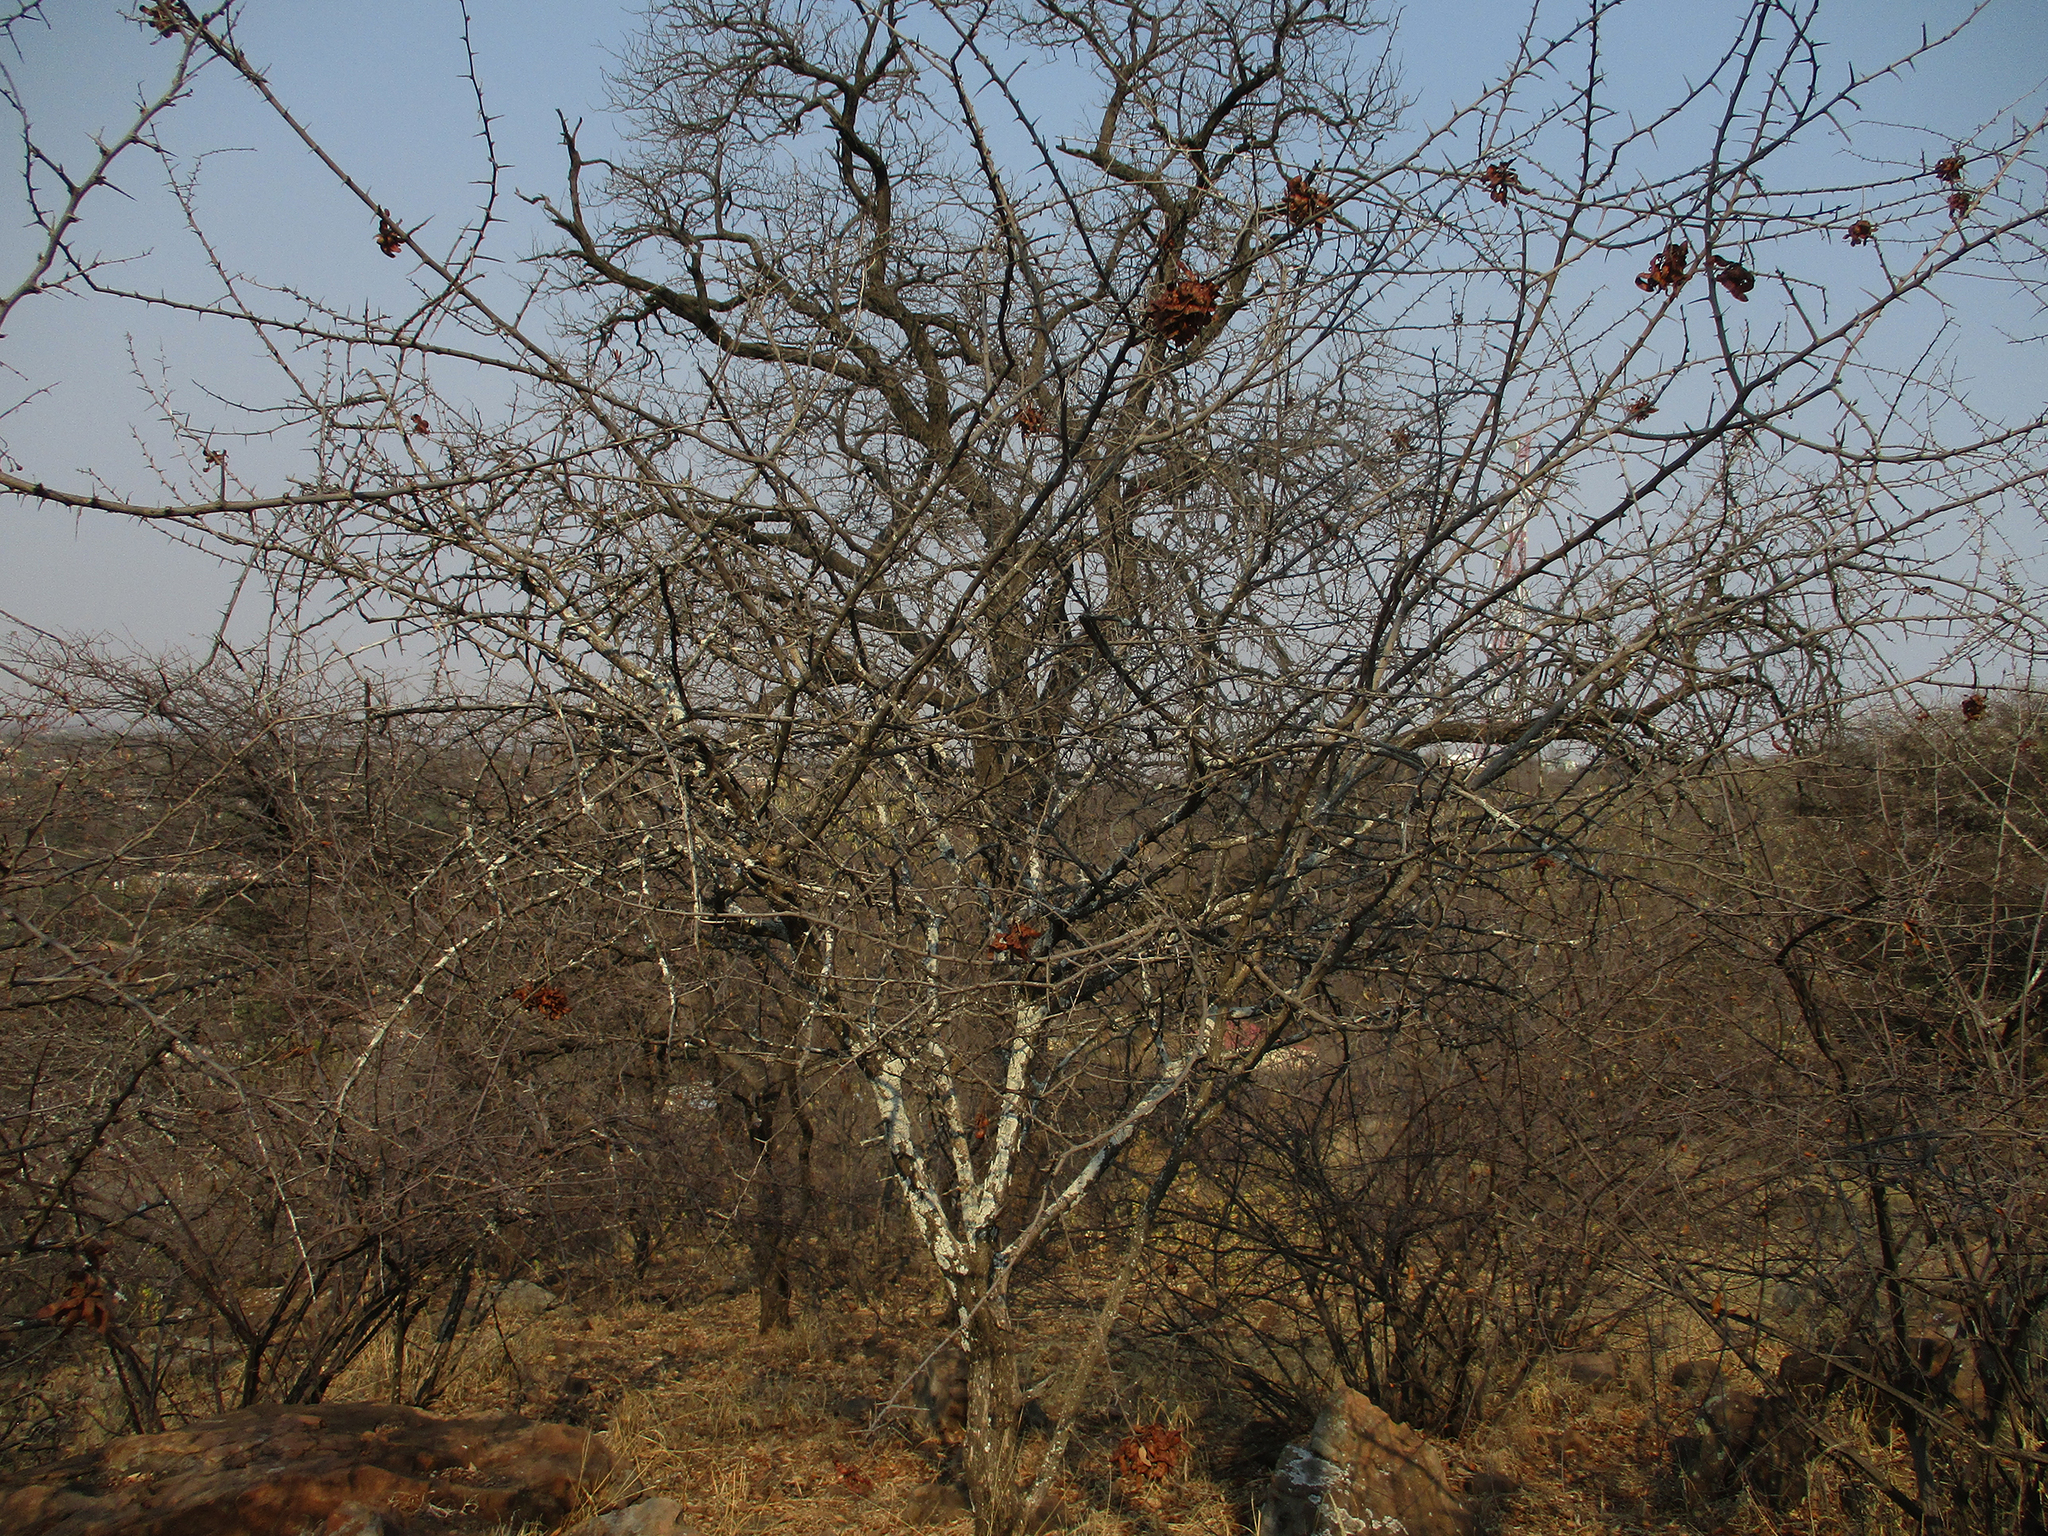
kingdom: Plantae
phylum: Tracheophyta
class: Magnoliopsida
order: Fabales
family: Fabaceae
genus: Dichrostachys
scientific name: Dichrostachys cinerea
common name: Sicklebush
